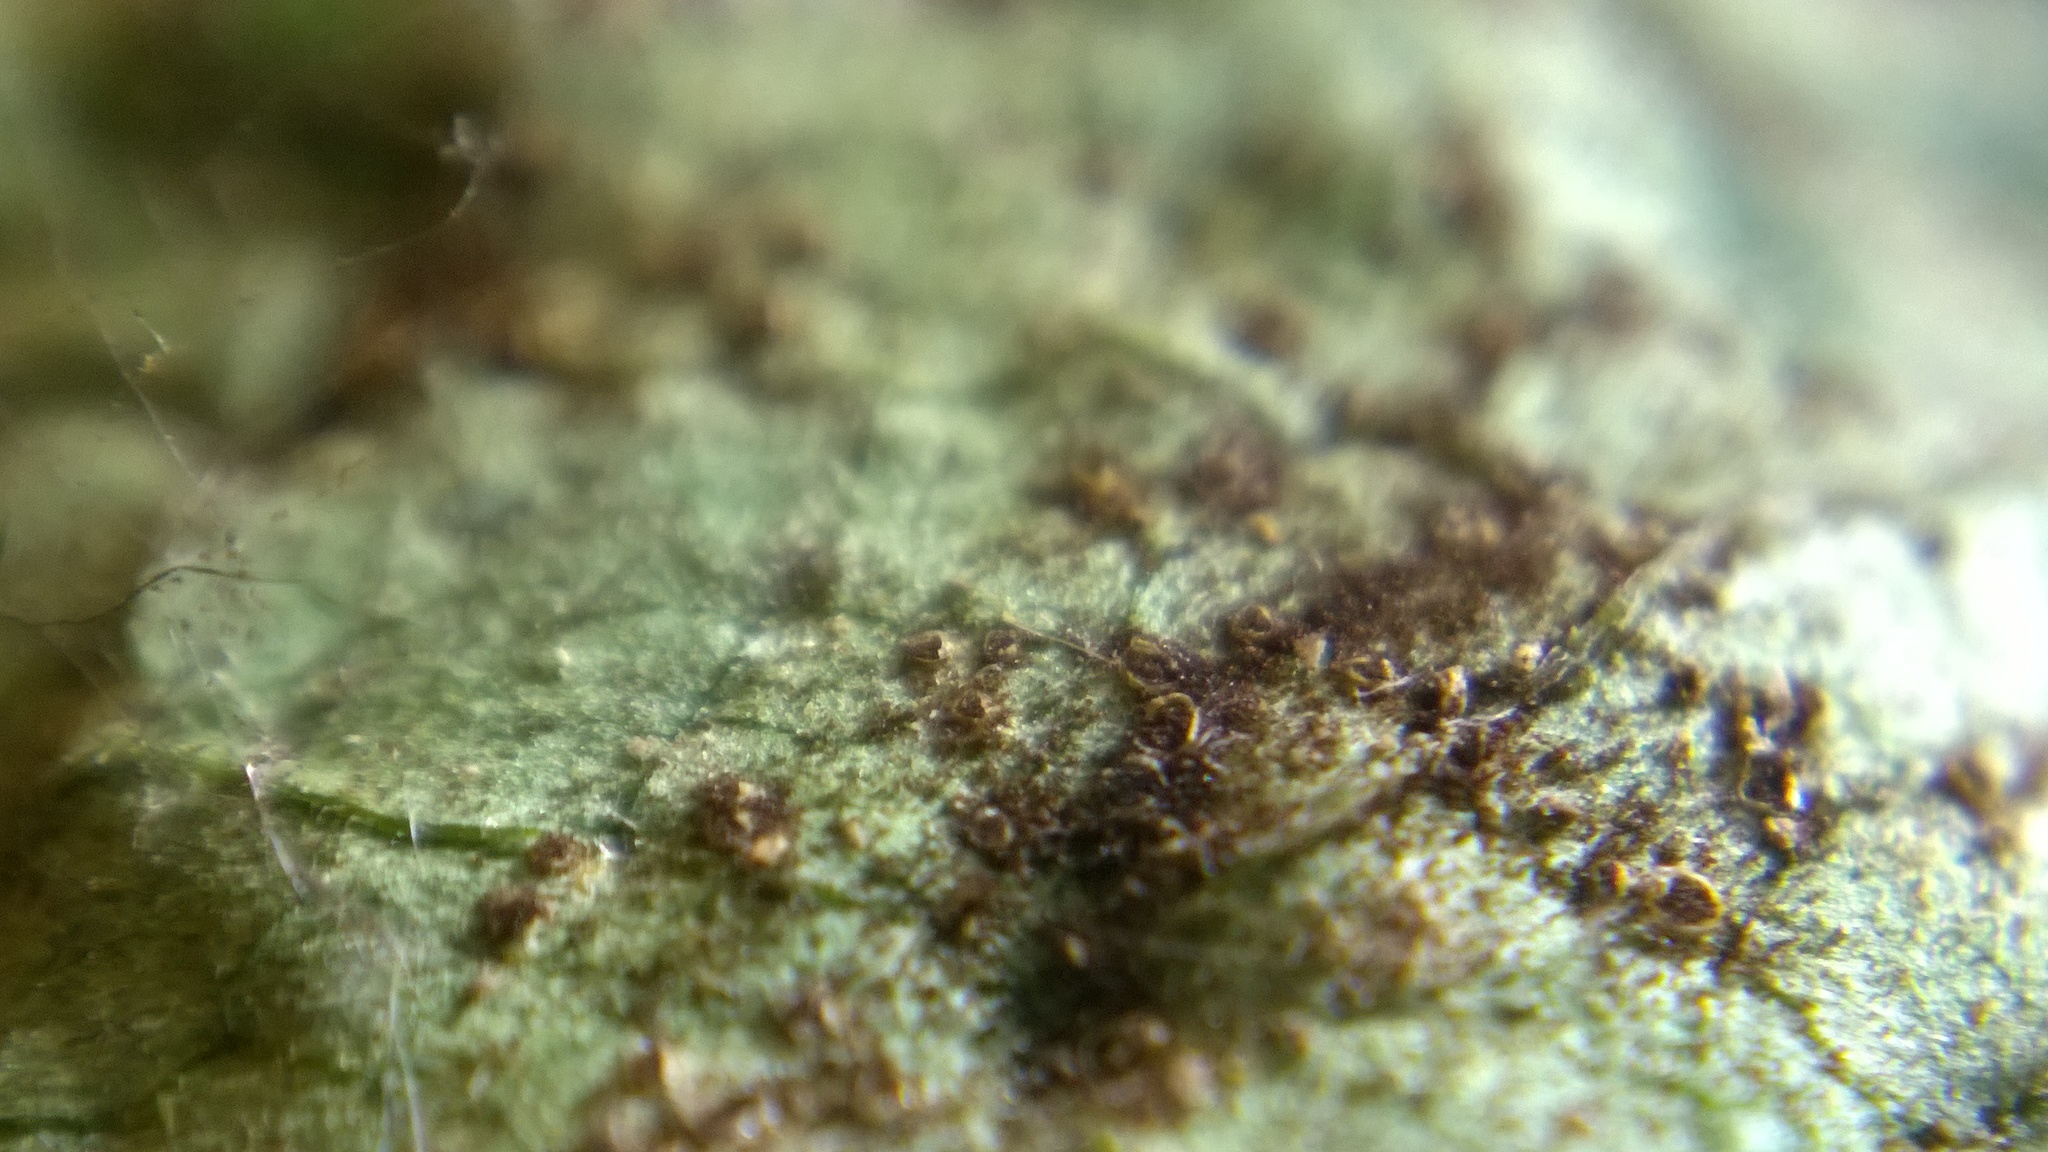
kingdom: Fungi
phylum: Basidiomycota
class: Pucciniomycetes
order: Pucciniales
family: Pucciniaceae
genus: Puccinia
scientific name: Puccinia podophylli
